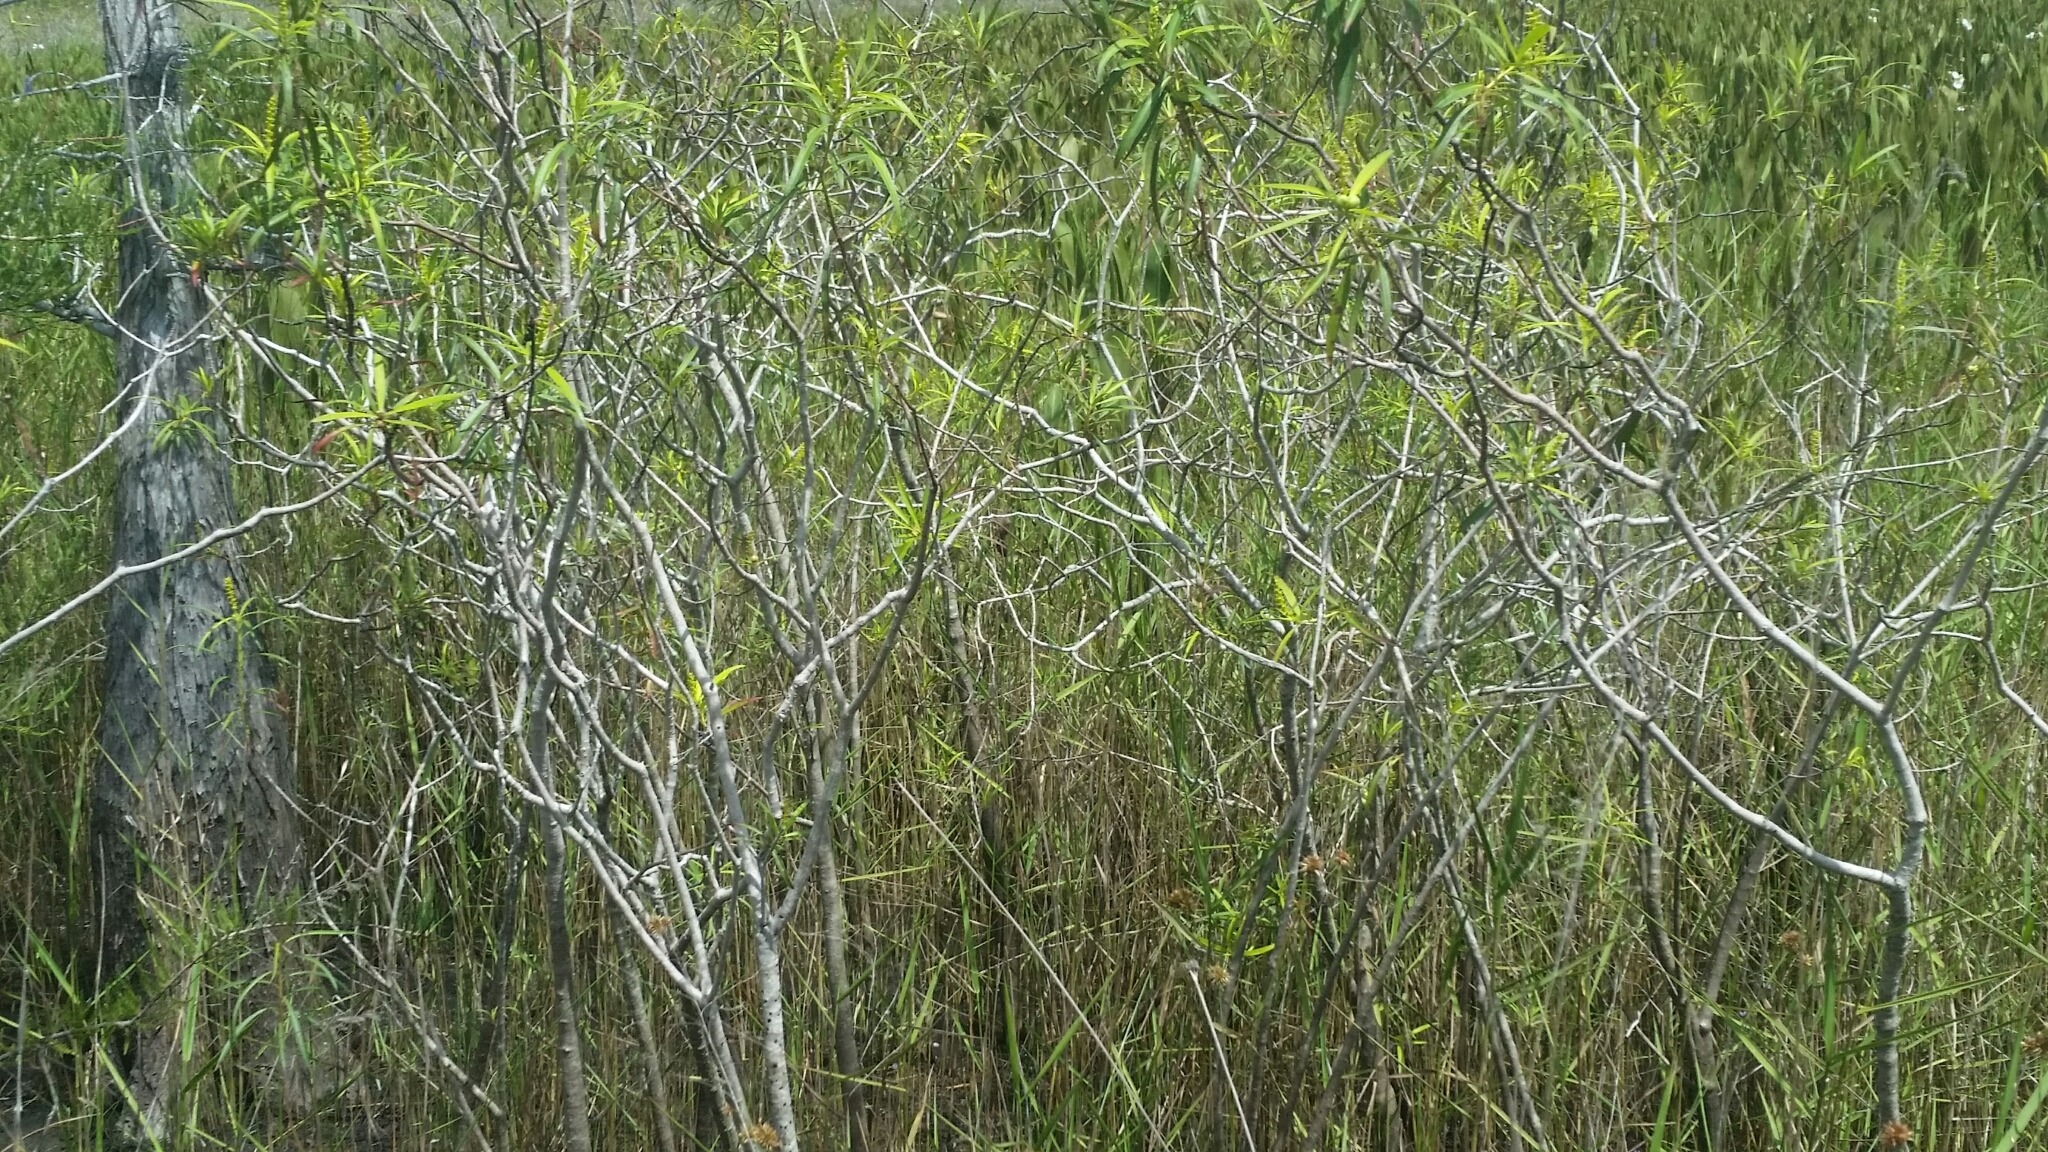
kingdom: Plantae
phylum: Tracheophyta
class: Magnoliopsida
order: Malpighiales
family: Euphorbiaceae
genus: Stillingia
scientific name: Stillingia aquatica
